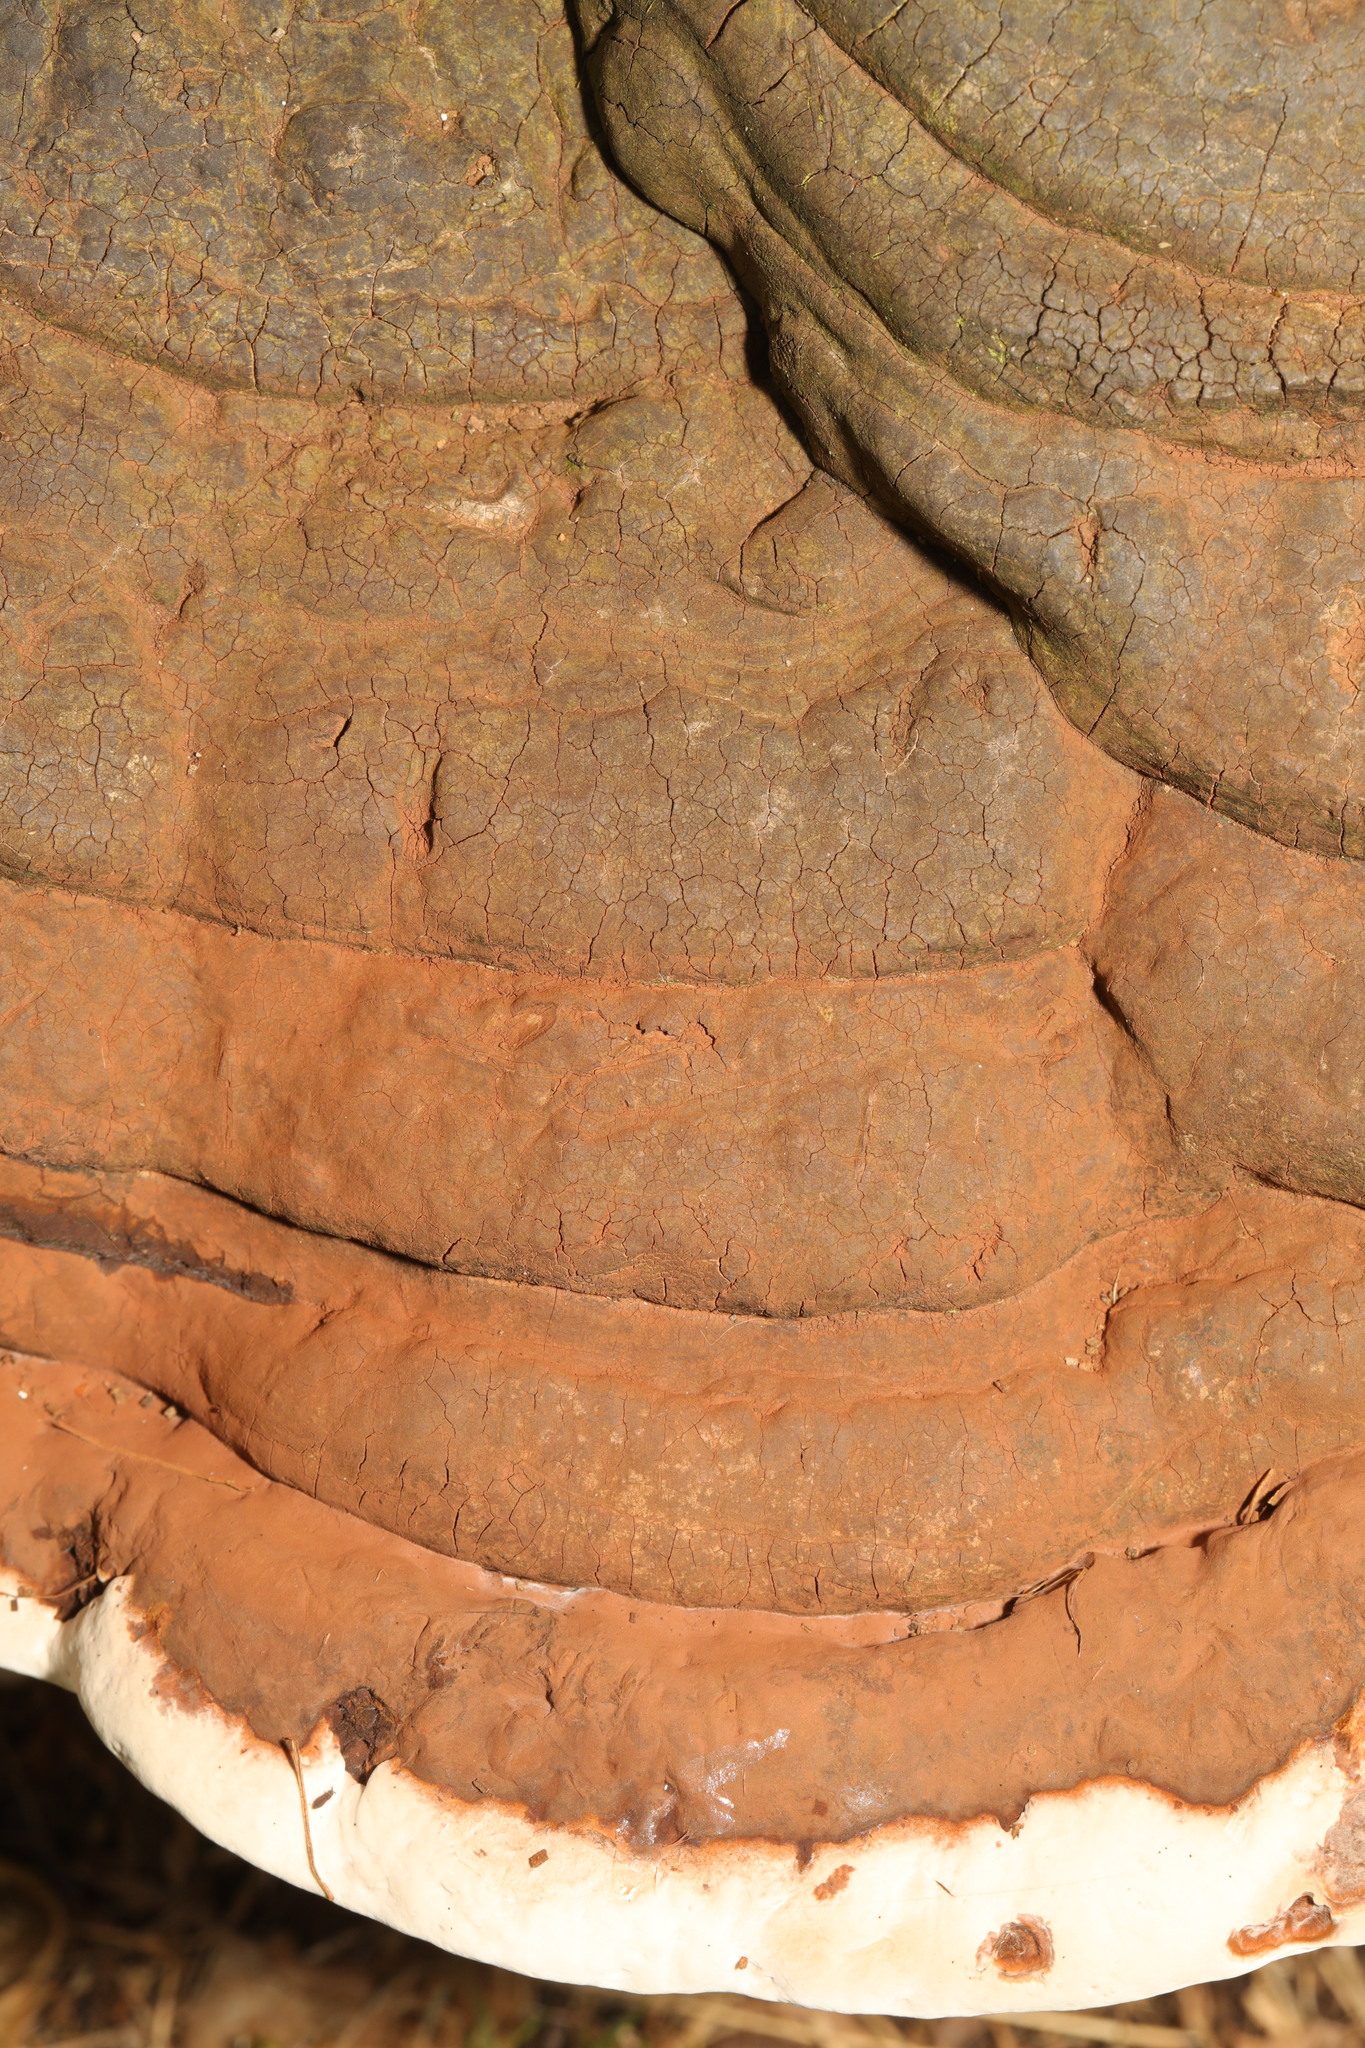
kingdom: Fungi
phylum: Basidiomycota
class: Agaricomycetes
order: Polyporales
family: Polyporaceae
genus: Ganoderma
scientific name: Ganoderma
